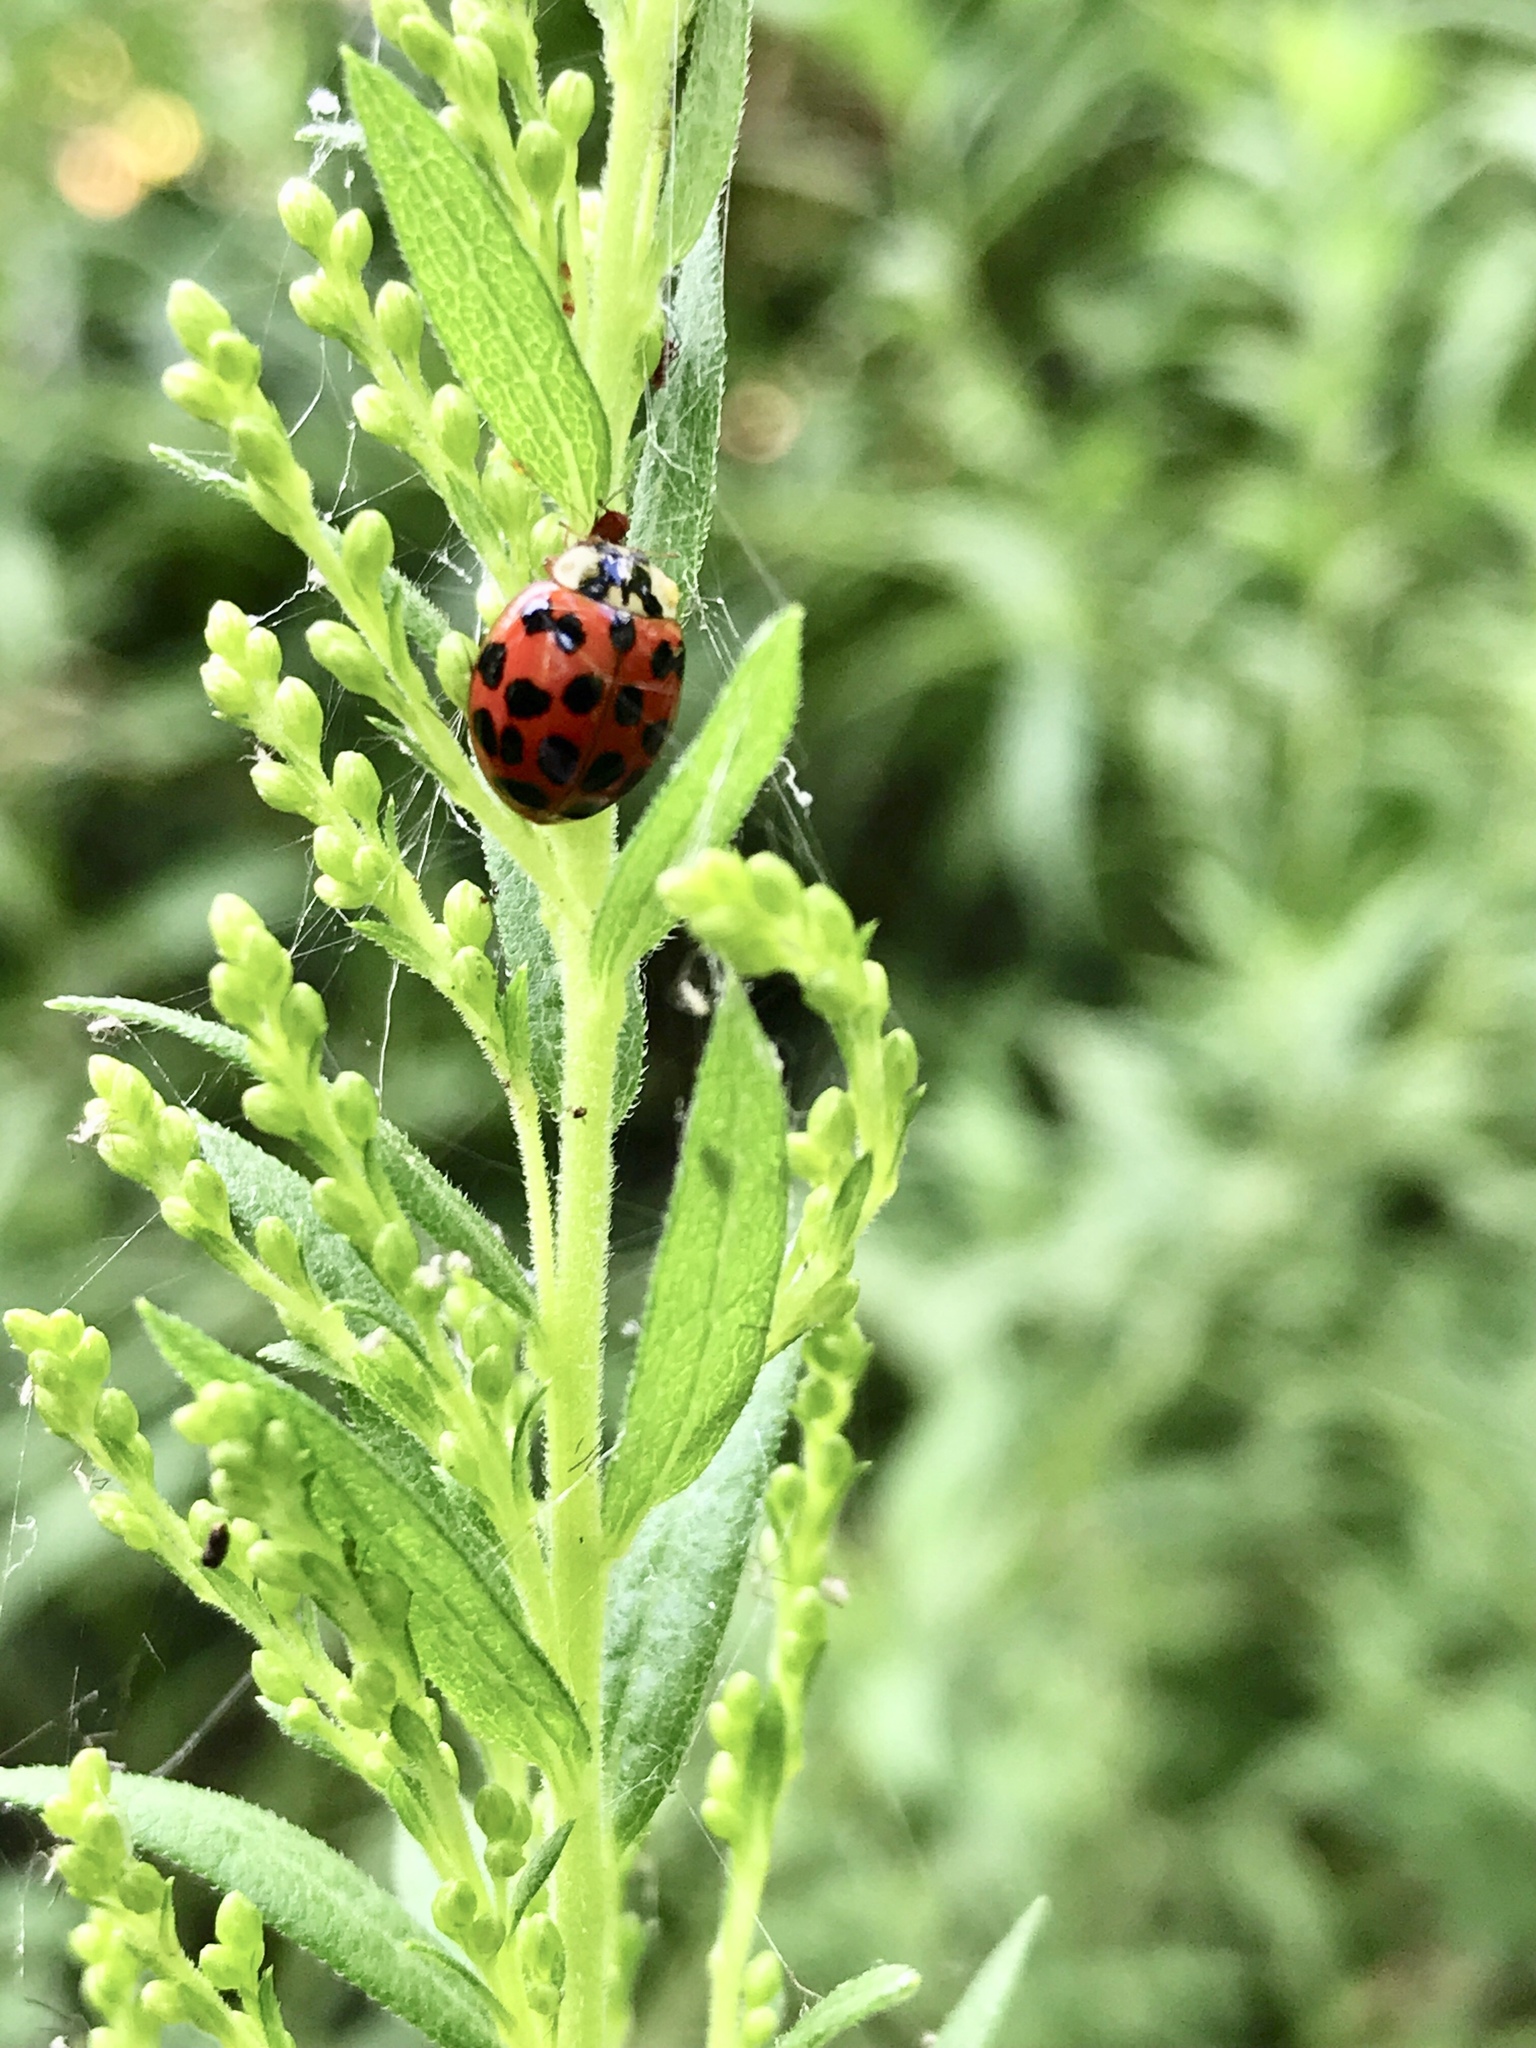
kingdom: Animalia
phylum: Arthropoda
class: Insecta
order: Coleoptera
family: Coccinellidae
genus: Harmonia
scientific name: Harmonia axyridis
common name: Harlequin ladybird
